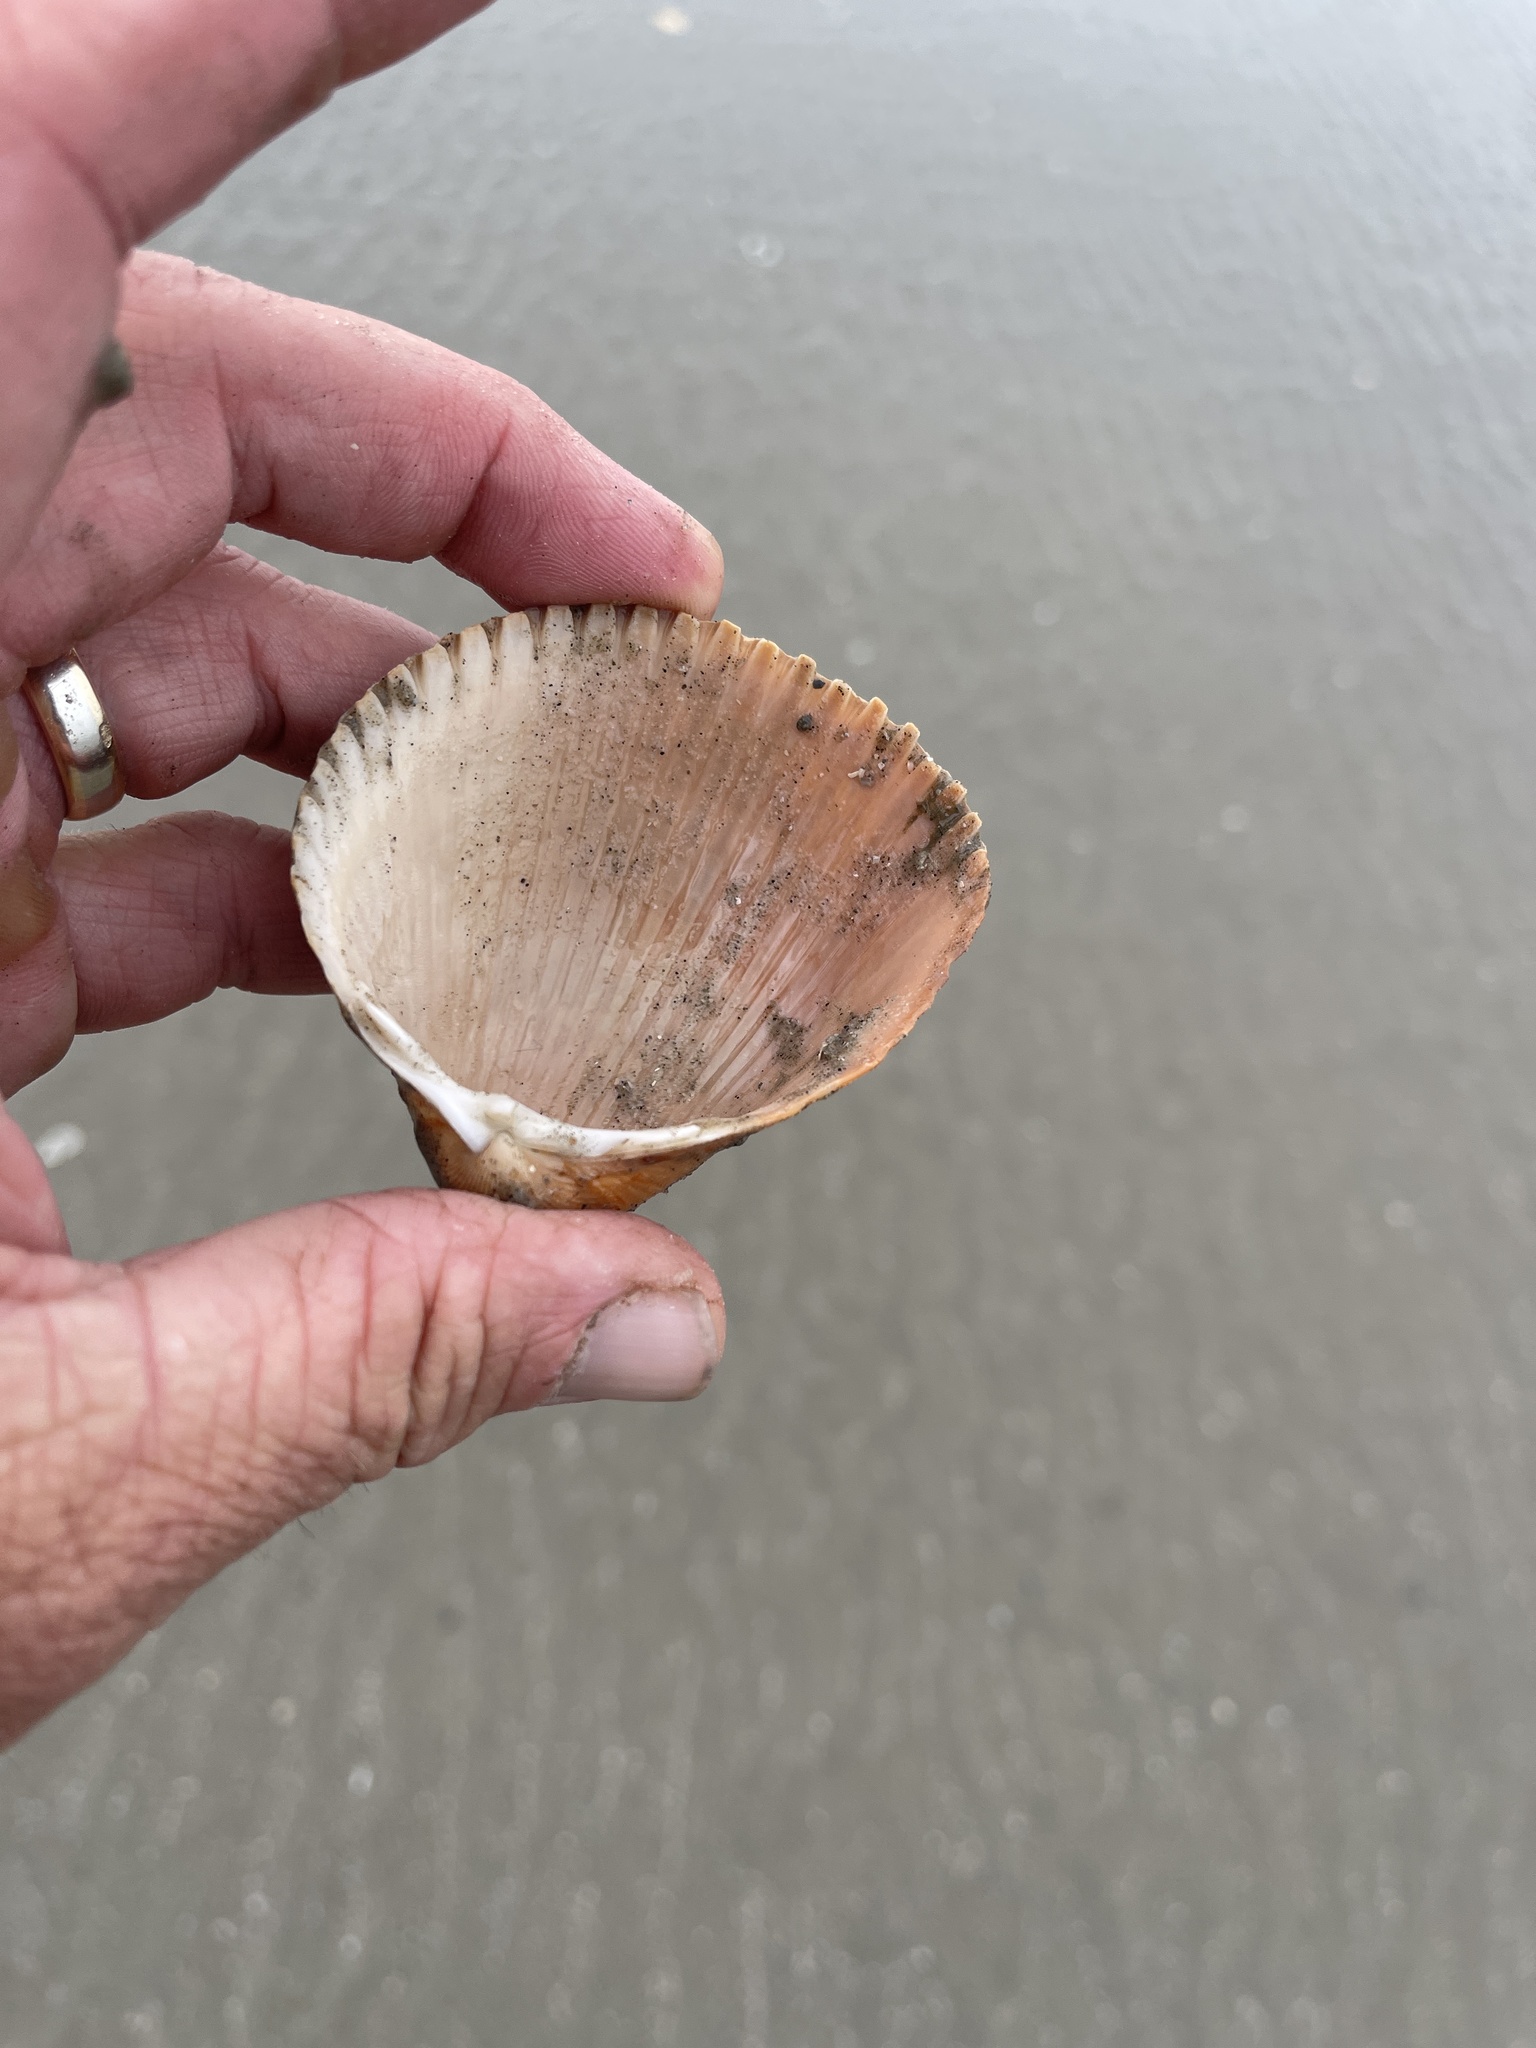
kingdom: Animalia
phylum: Mollusca
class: Bivalvia
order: Cardiida
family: Cardiidae
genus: Dinocardium
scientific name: Dinocardium robustum
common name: Atlantic giant cockle
